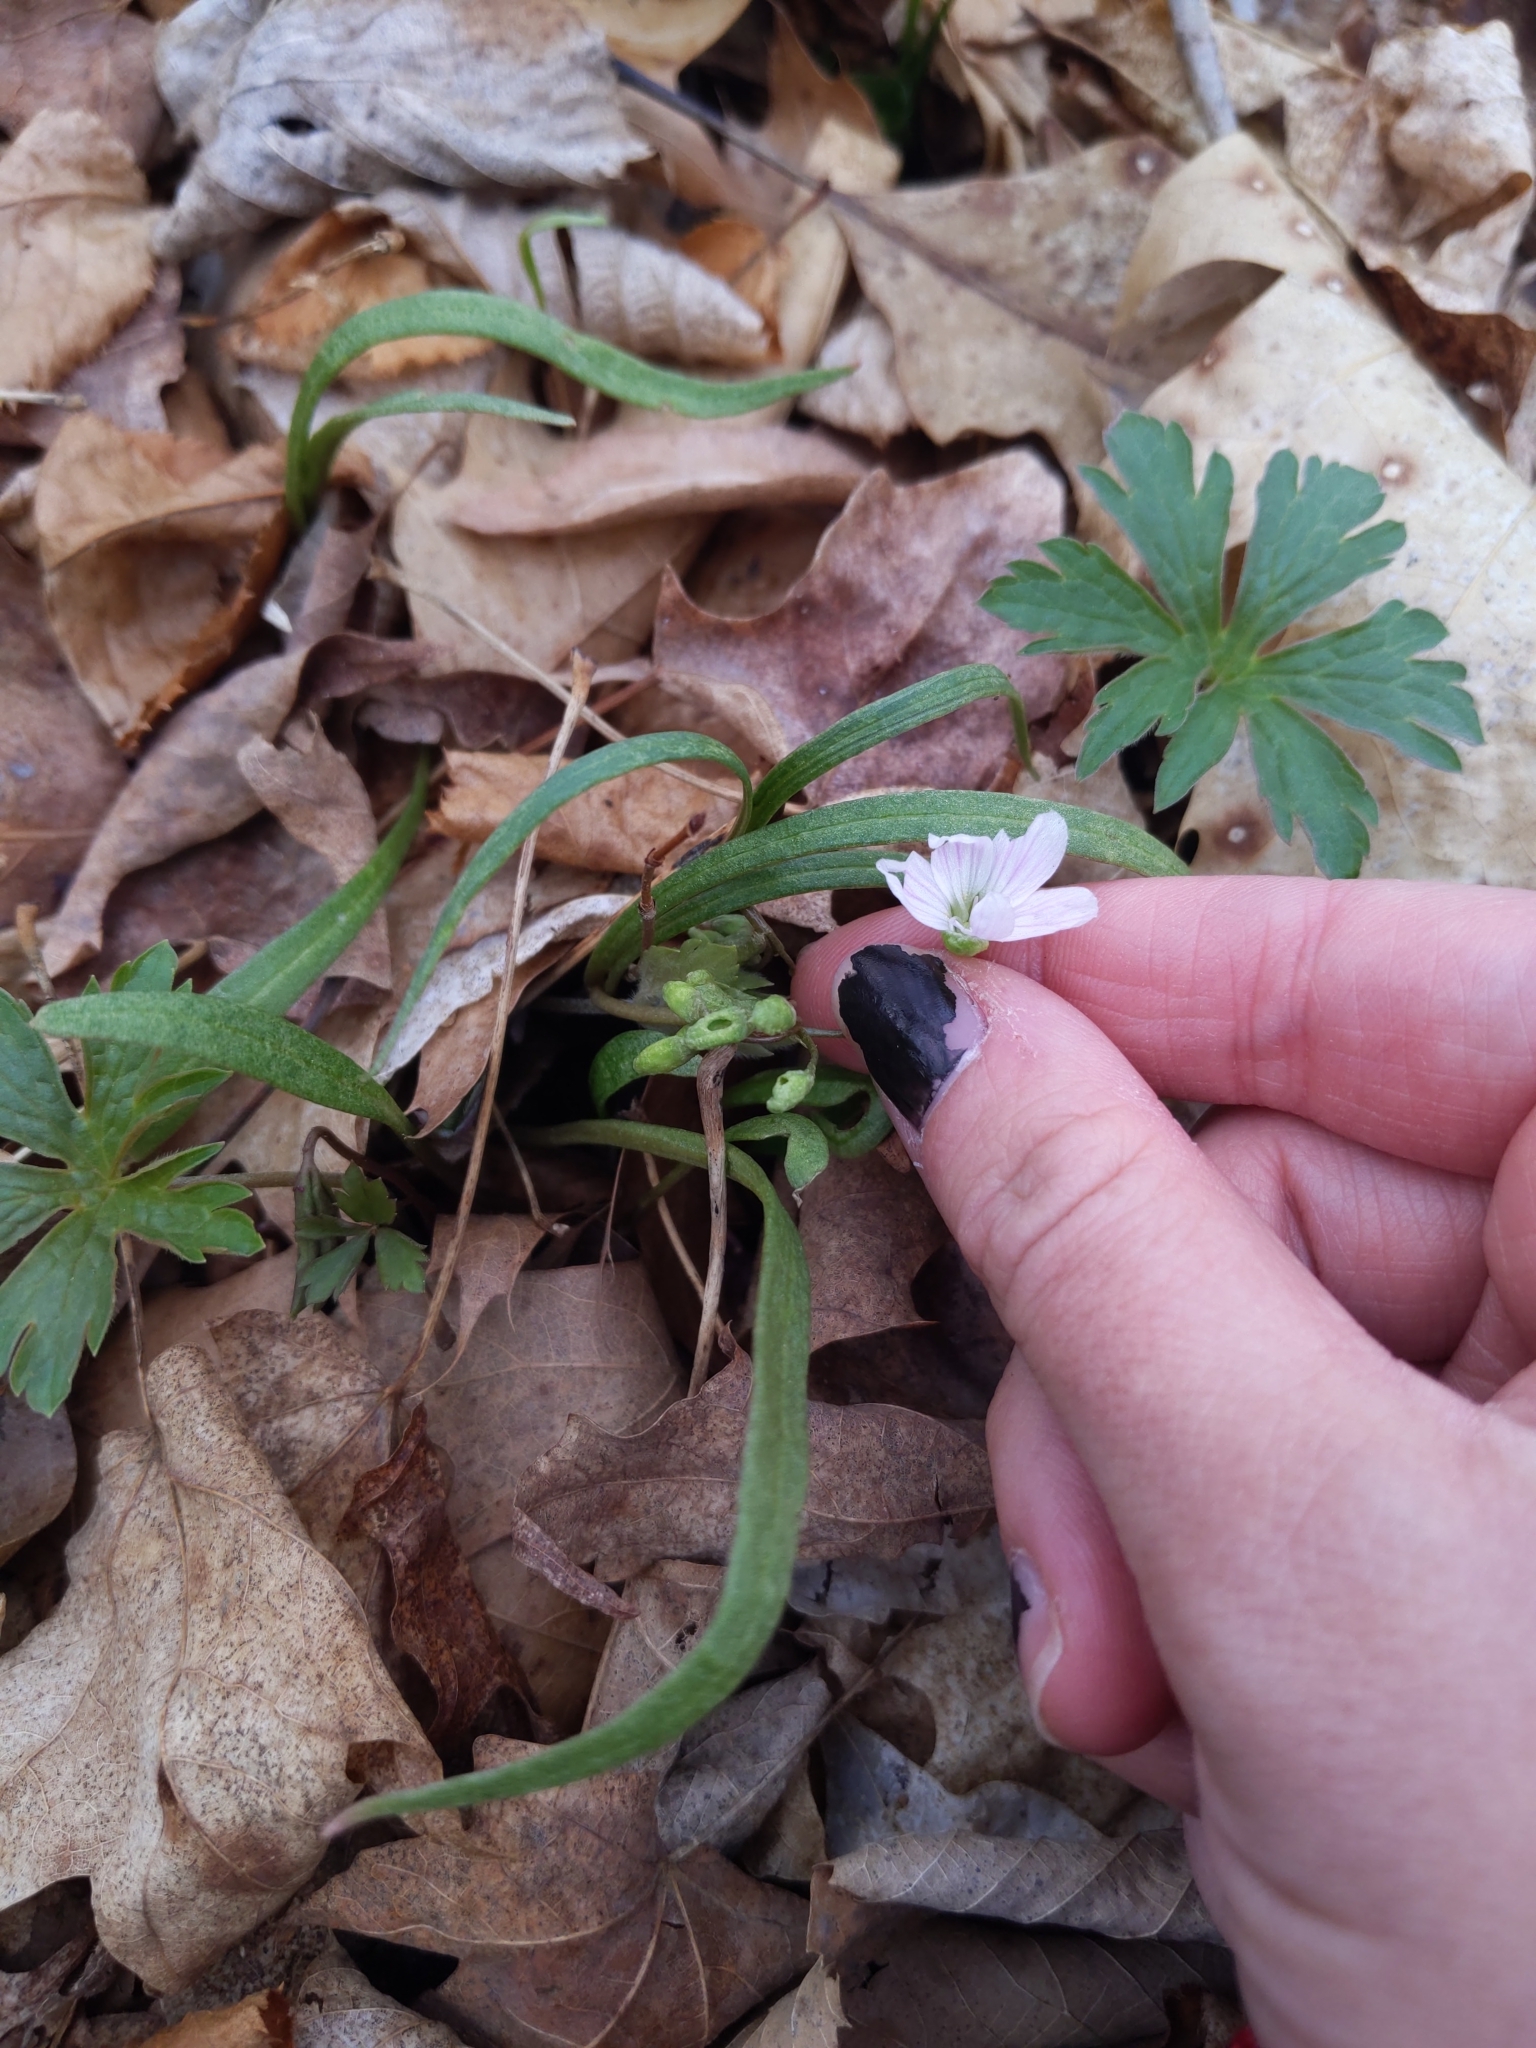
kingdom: Plantae
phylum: Tracheophyta
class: Magnoliopsida
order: Caryophyllales
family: Montiaceae
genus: Claytonia
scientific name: Claytonia virginica
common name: Virginia springbeauty
